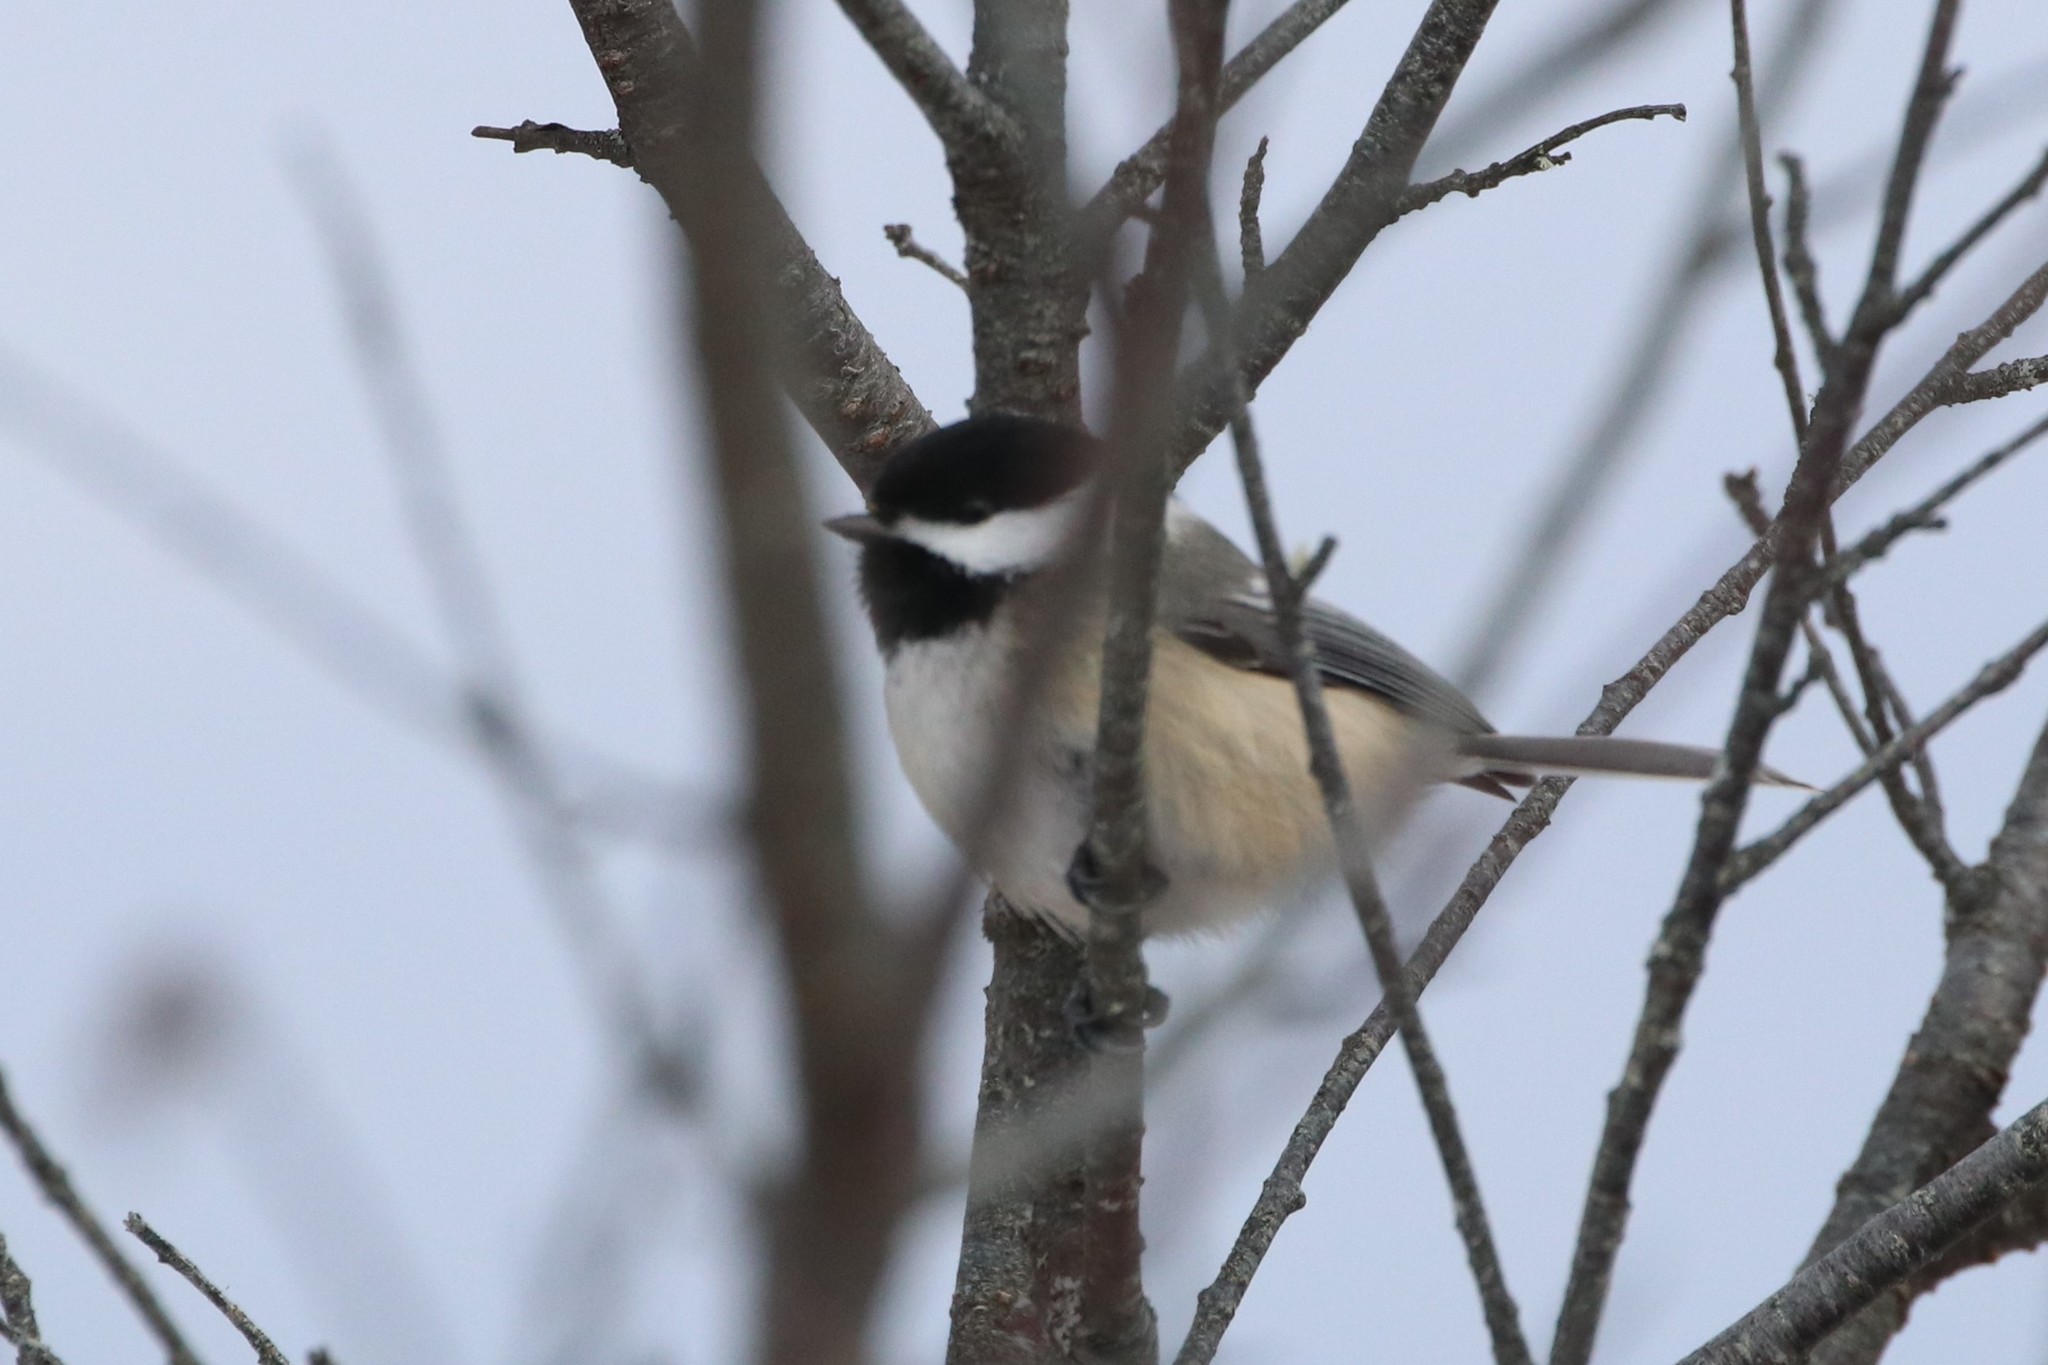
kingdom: Animalia
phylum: Chordata
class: Aves
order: Passeriformes
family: Paridae
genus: Poecile
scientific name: Poecile atricapillus
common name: Black-capped chickadee
